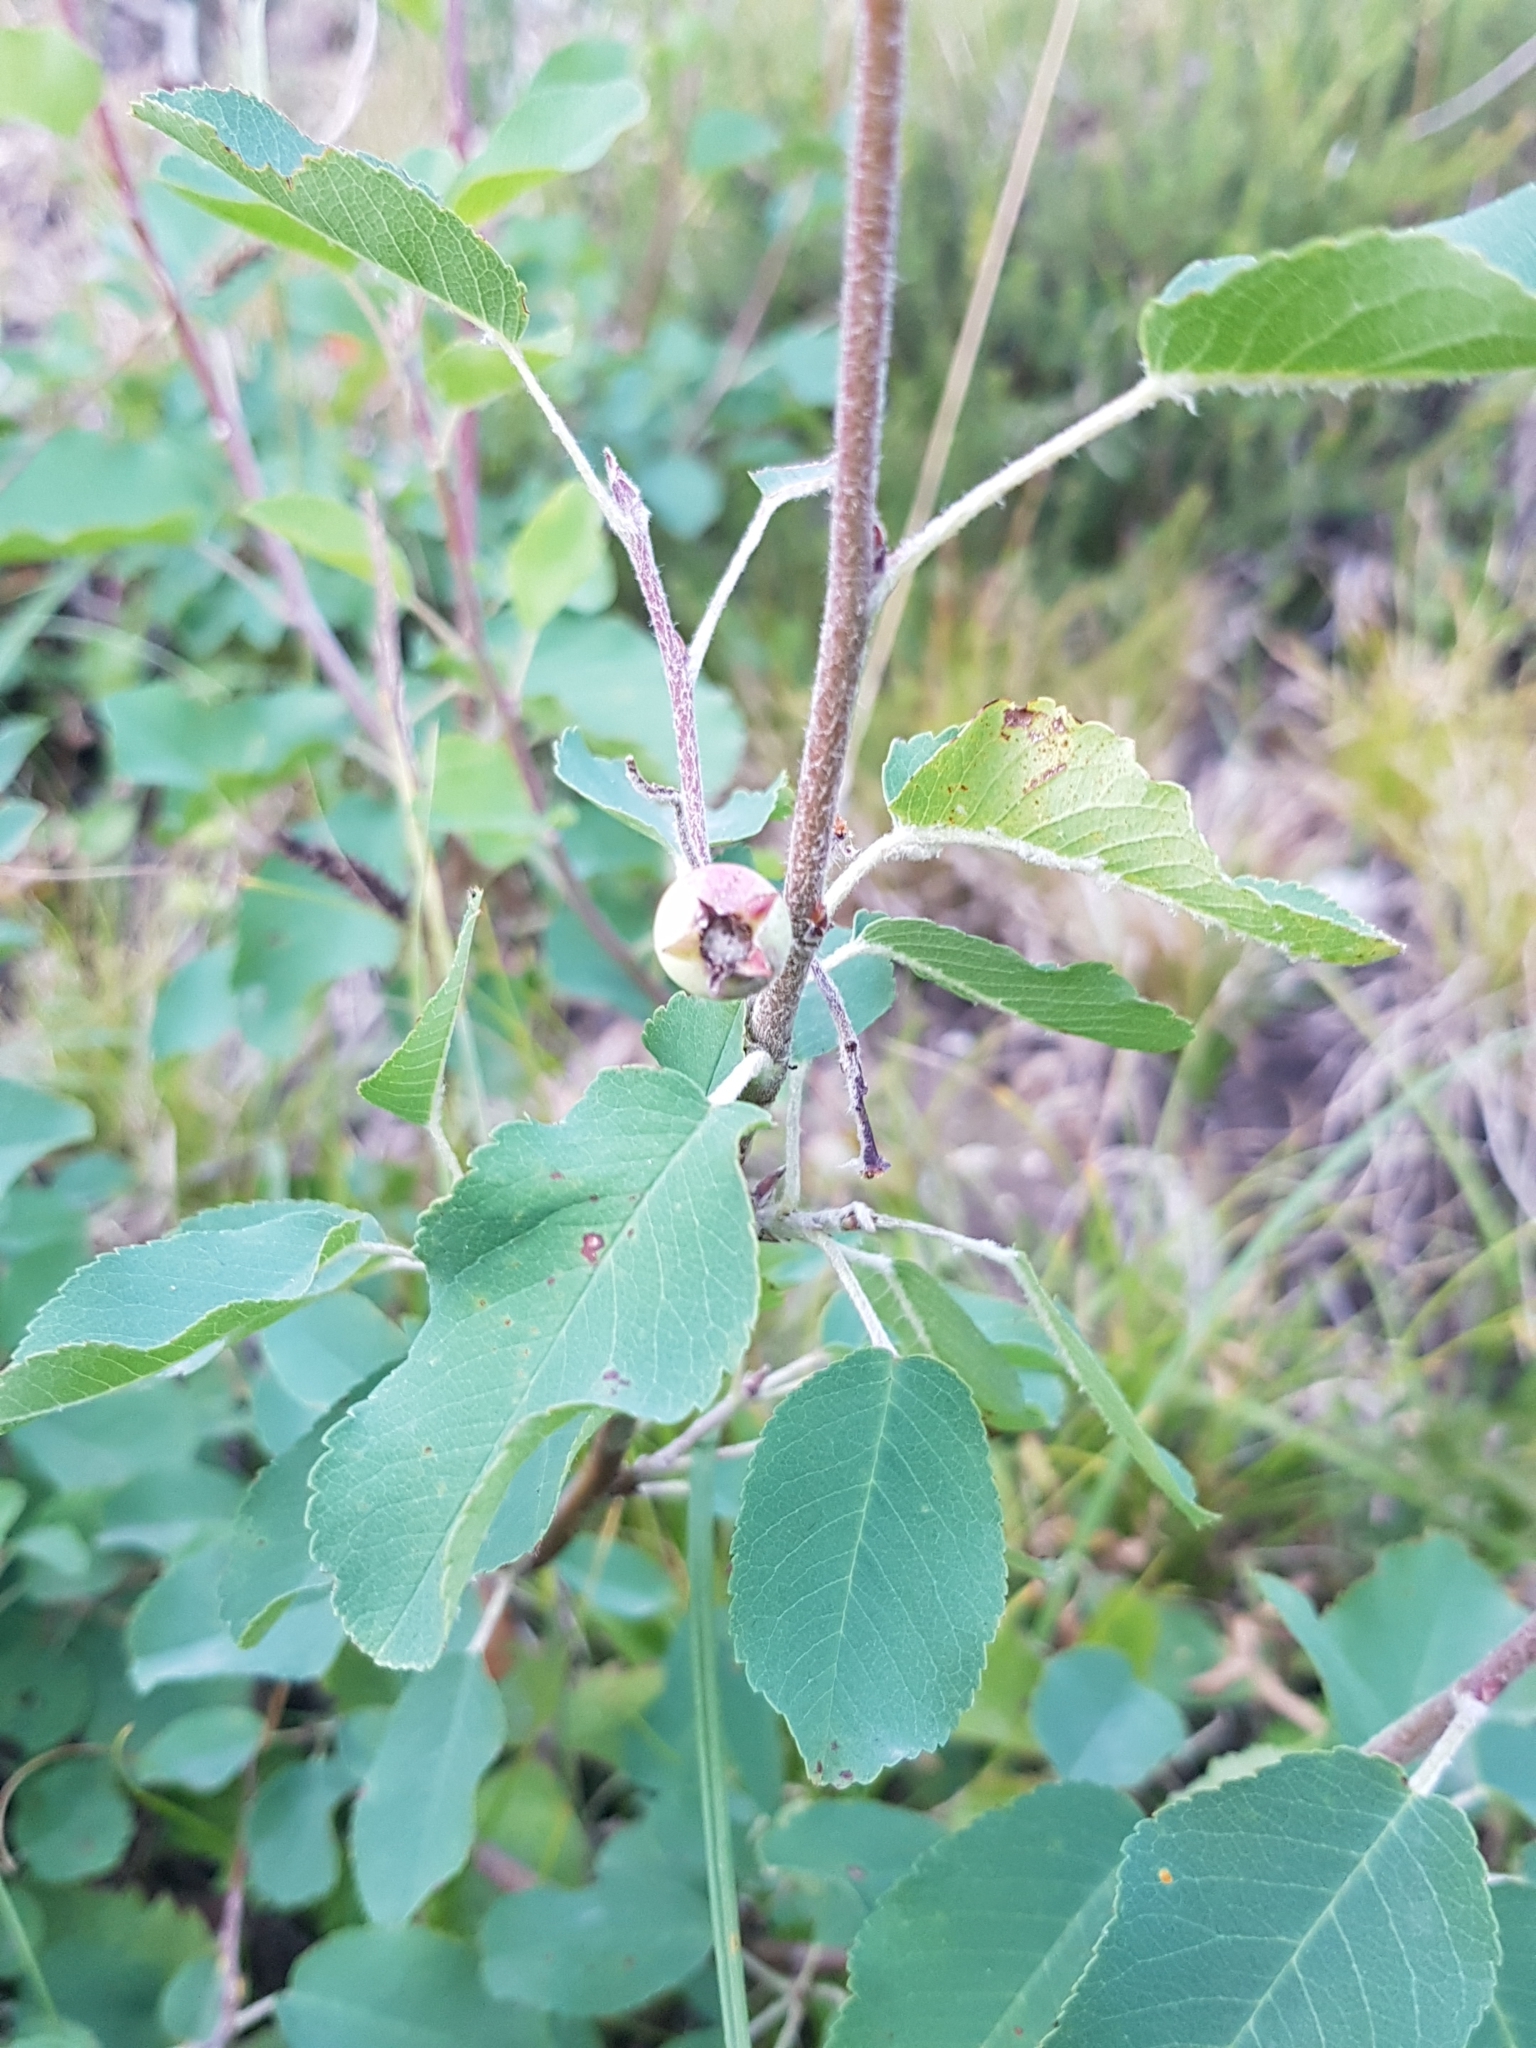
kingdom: Plantae
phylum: Tracheophyta
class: Magnoliopsida
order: Rosales
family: Rosaceae
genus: Amelanchier
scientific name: Amelanchier ovalis
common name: Serviceberry
